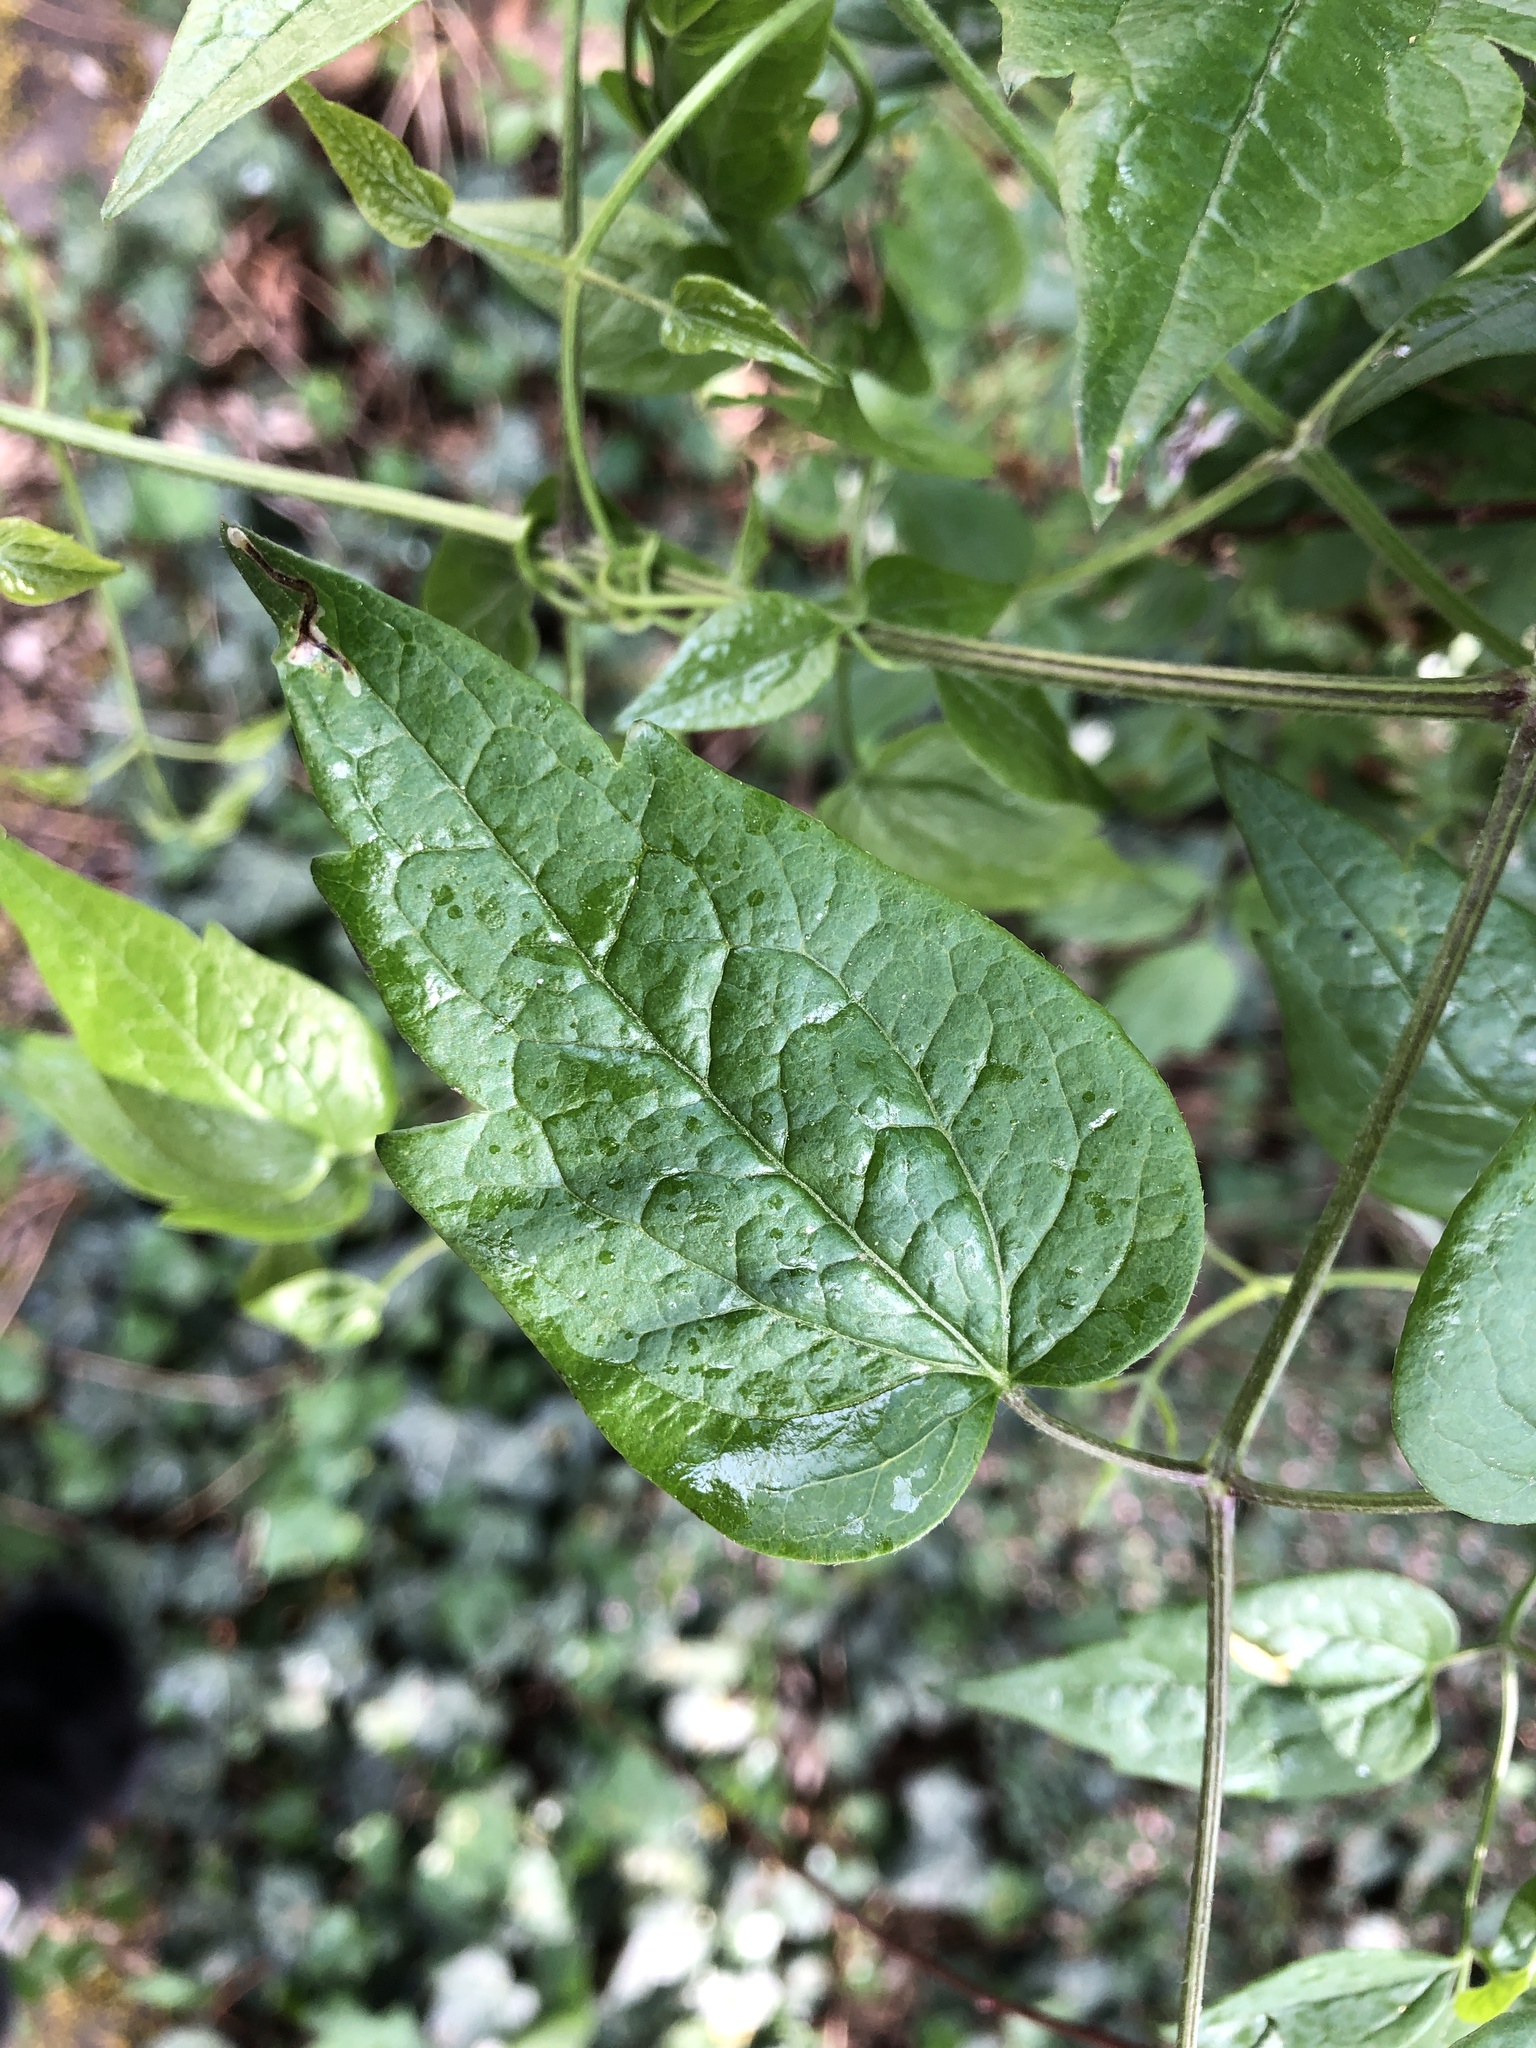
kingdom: Plantae
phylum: Tracheophyta
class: Magnoliopsida
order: Ranunculales
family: Ranunculaceae
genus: Clematis
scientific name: Clematis vitalba
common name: Evergreen clematis
